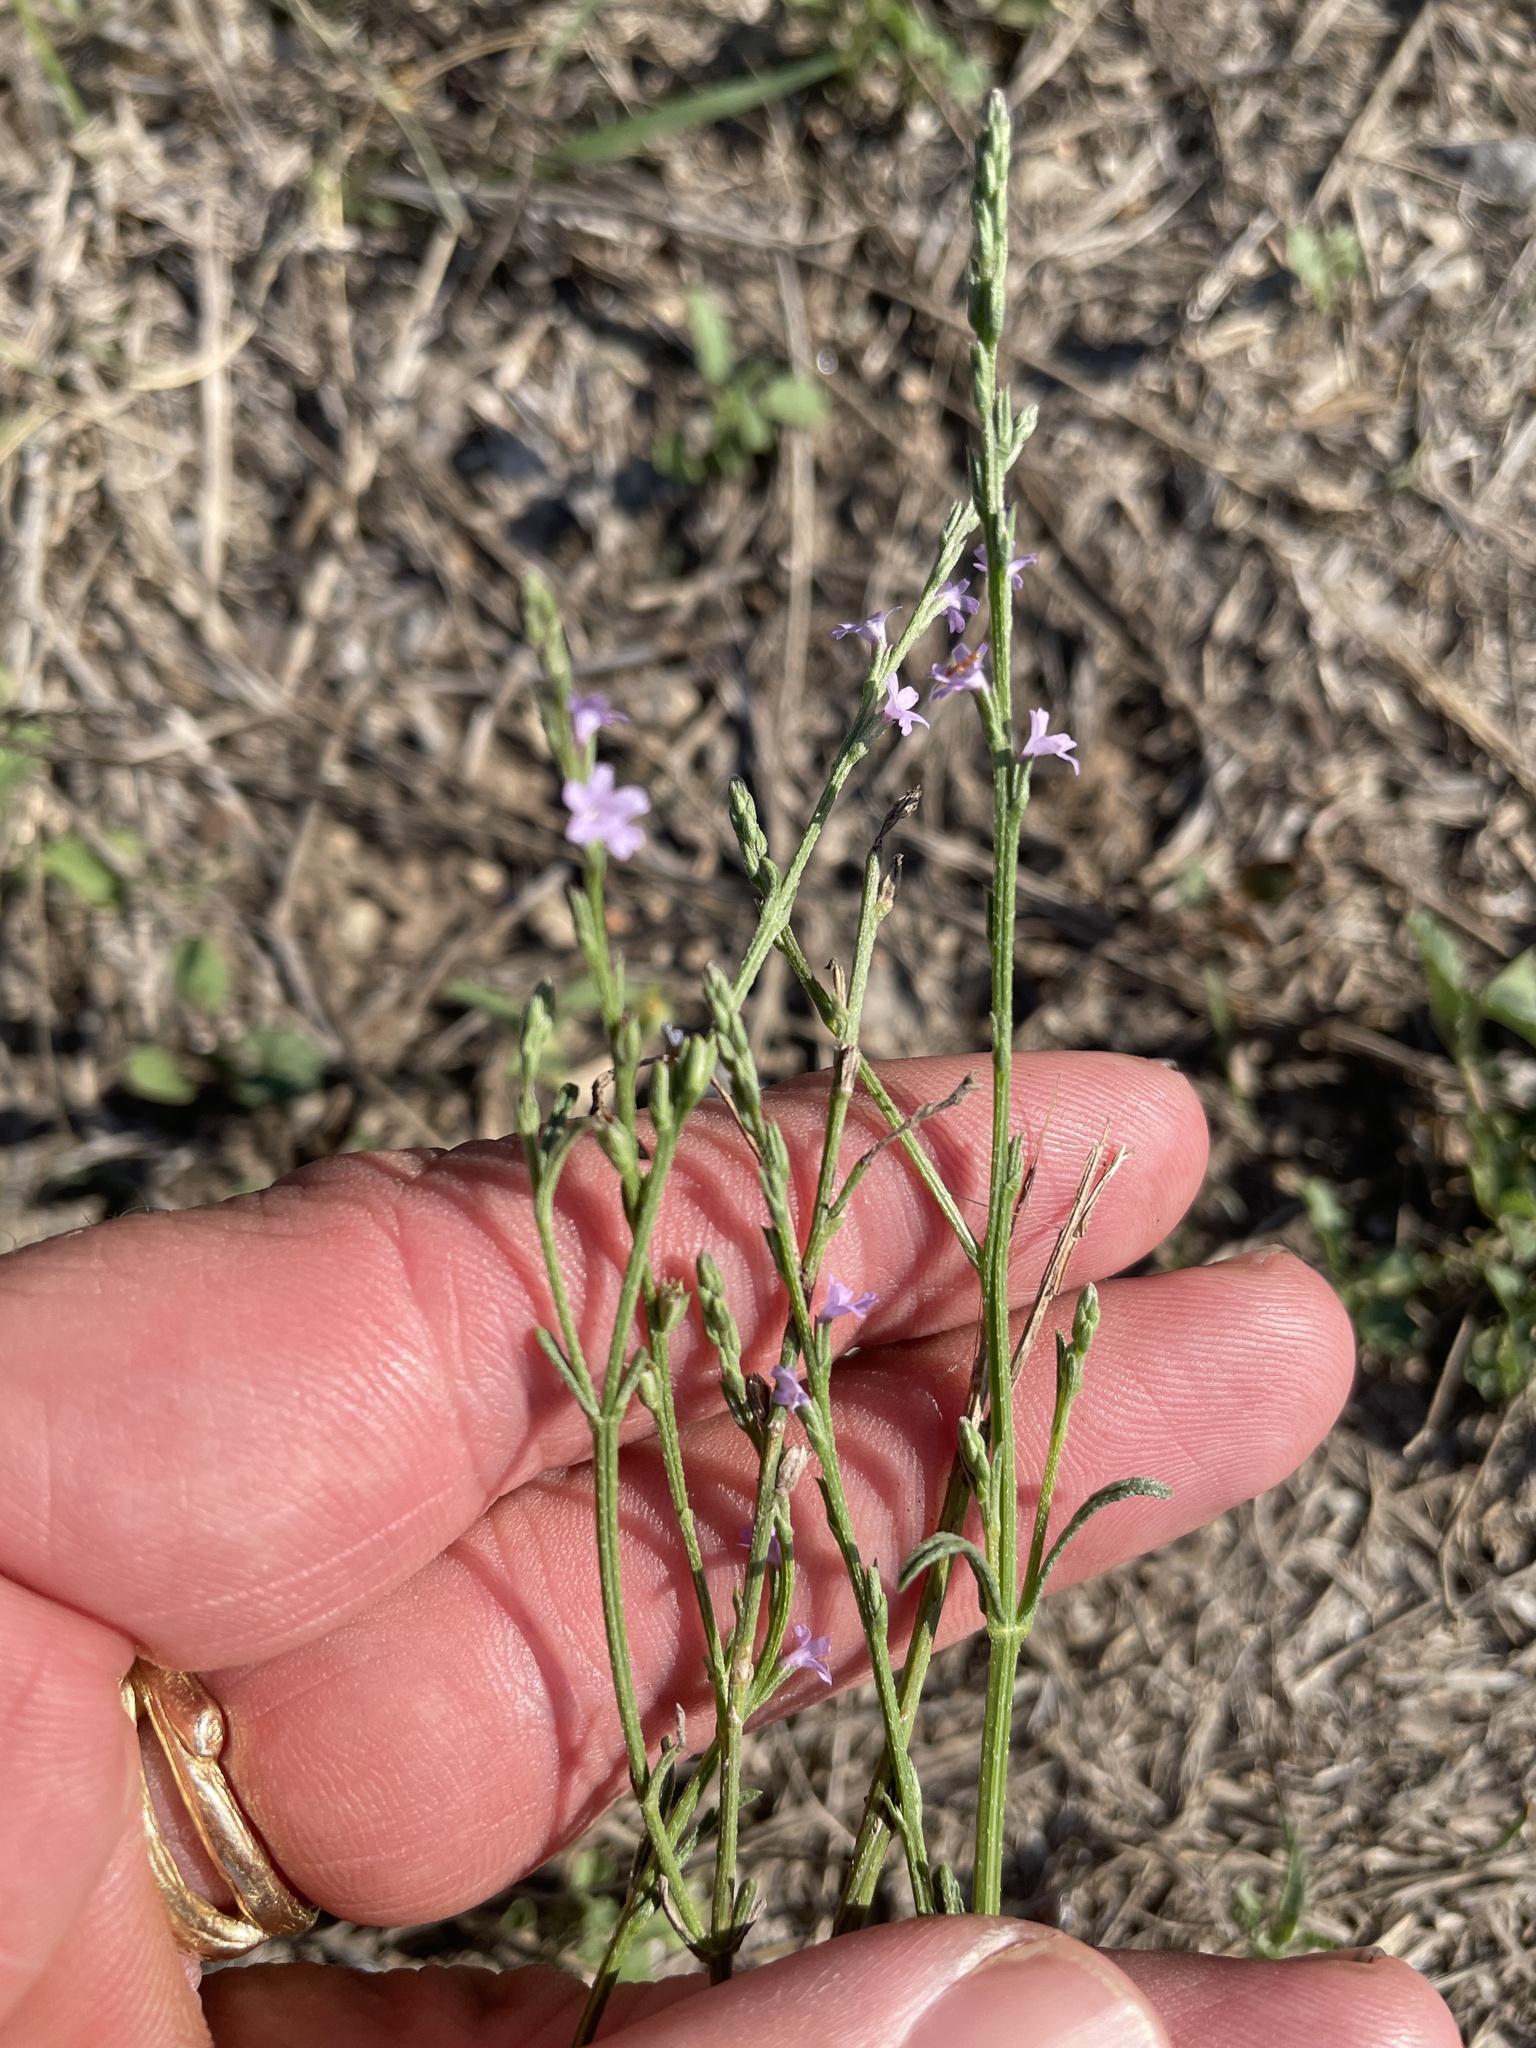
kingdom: Plantae
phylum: Tracheophyta
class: Magnoliopsida
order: Lamiales
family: Verbenaceae
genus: Verbena
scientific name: Verbena halei
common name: Texas vervain
